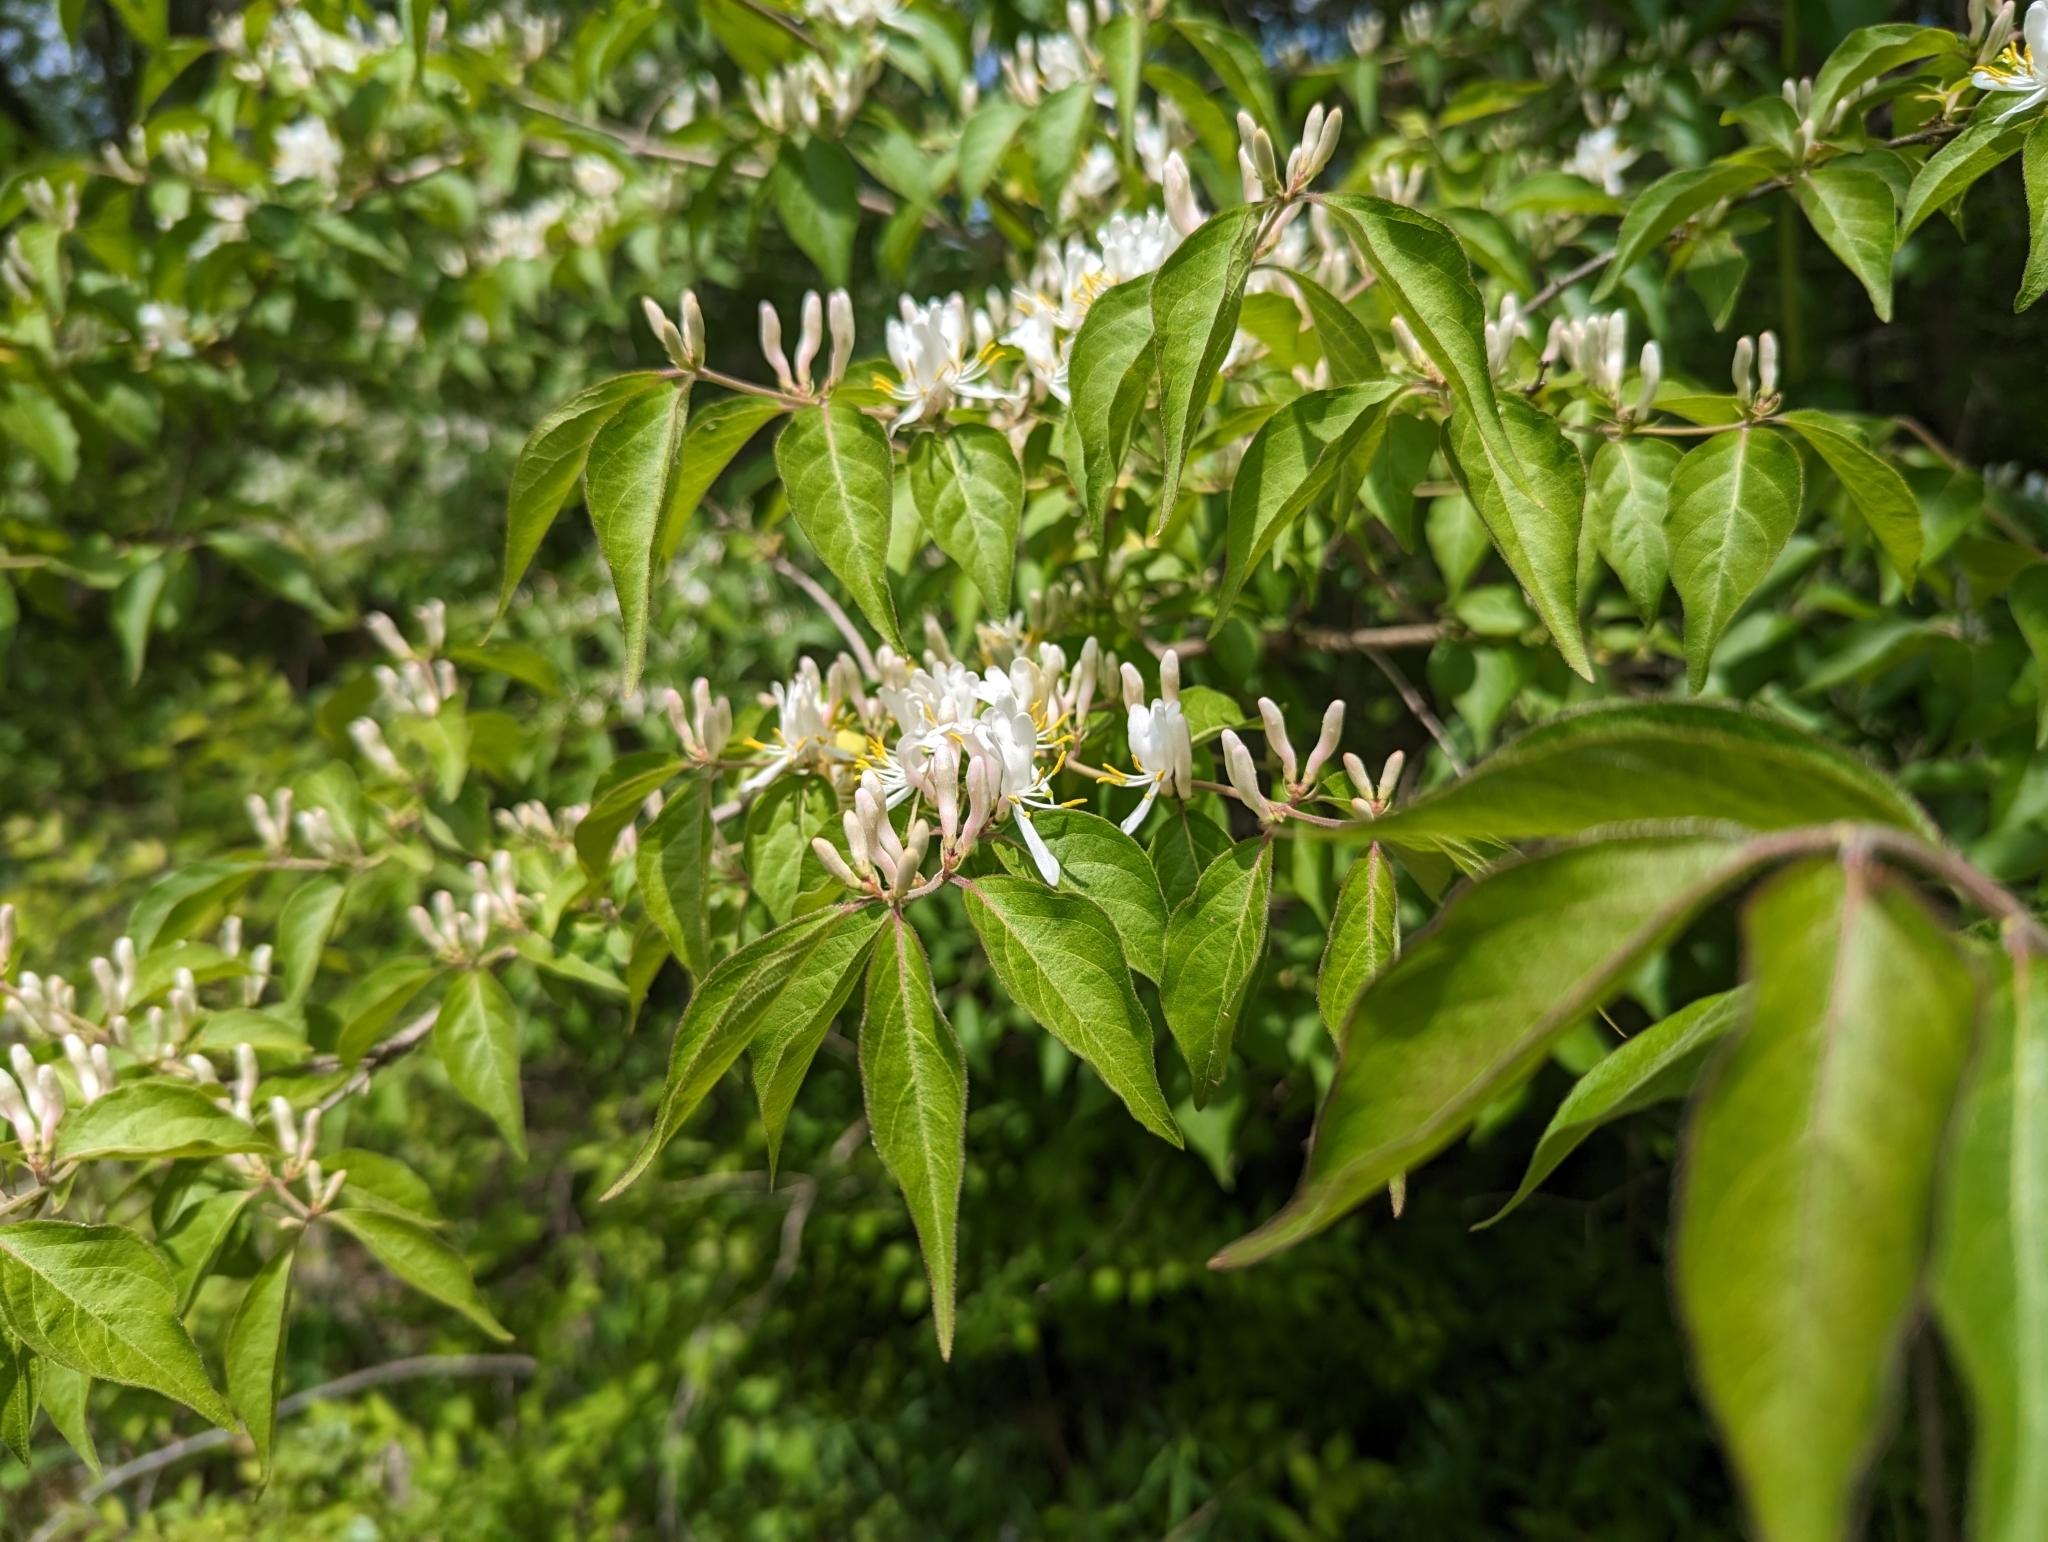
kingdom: Plantae
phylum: Tracheophyta
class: Magnoliopsida
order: Dipsacales
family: Caprifoliaceae
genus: Lonicera
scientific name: Lonicera maackii
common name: Amur honeysuckle
